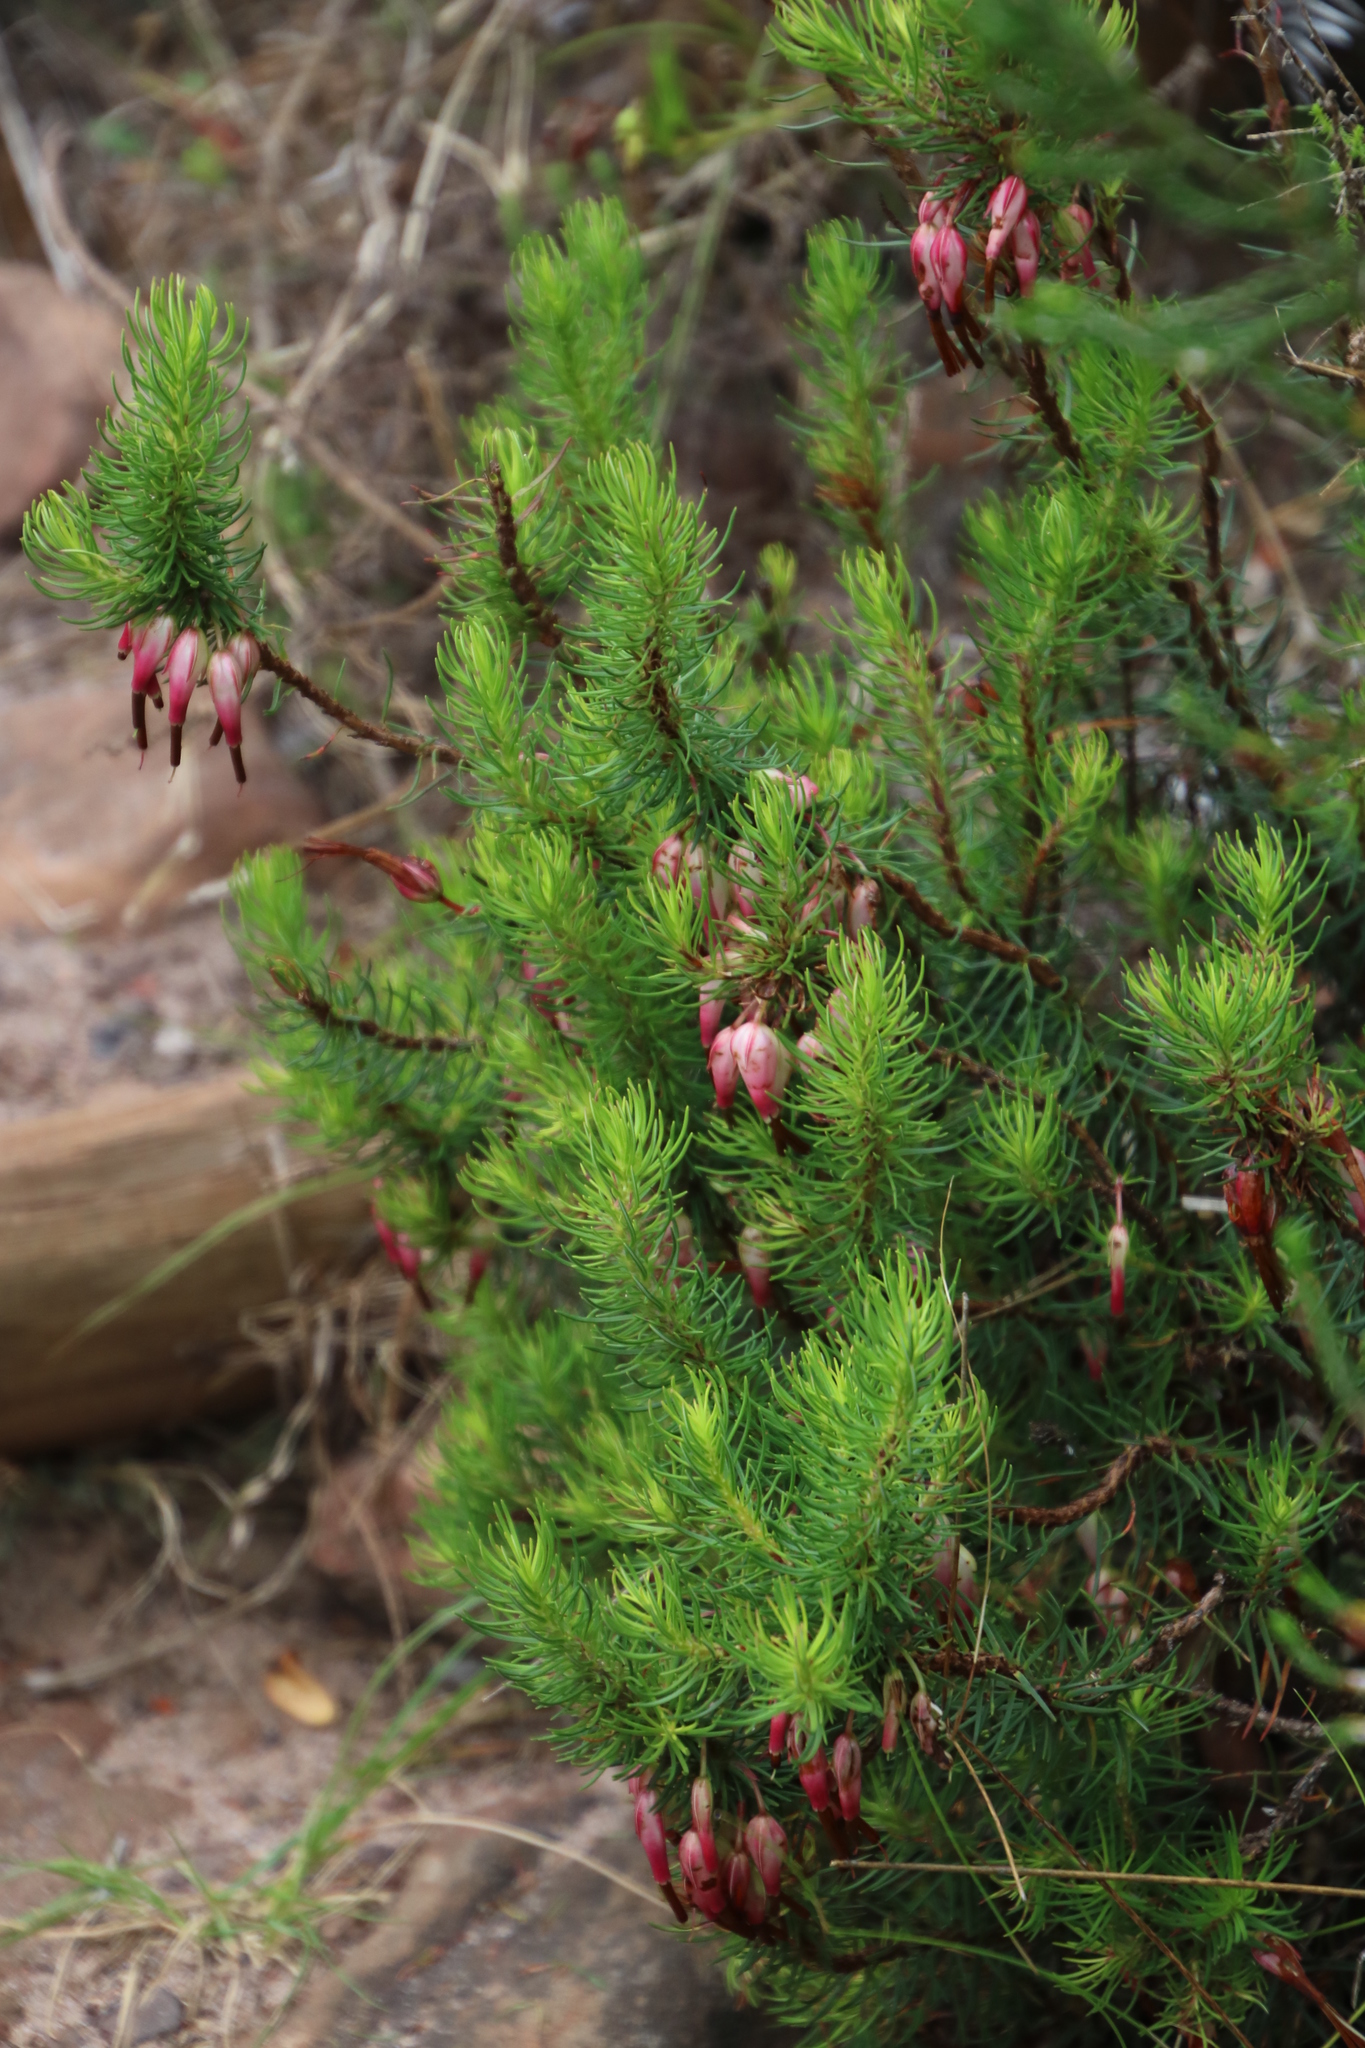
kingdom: Plantae
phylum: Tracheophyta
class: Magnoliopsida
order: Ericales
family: Ericaceae
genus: Erica
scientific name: Erica plukenetii
